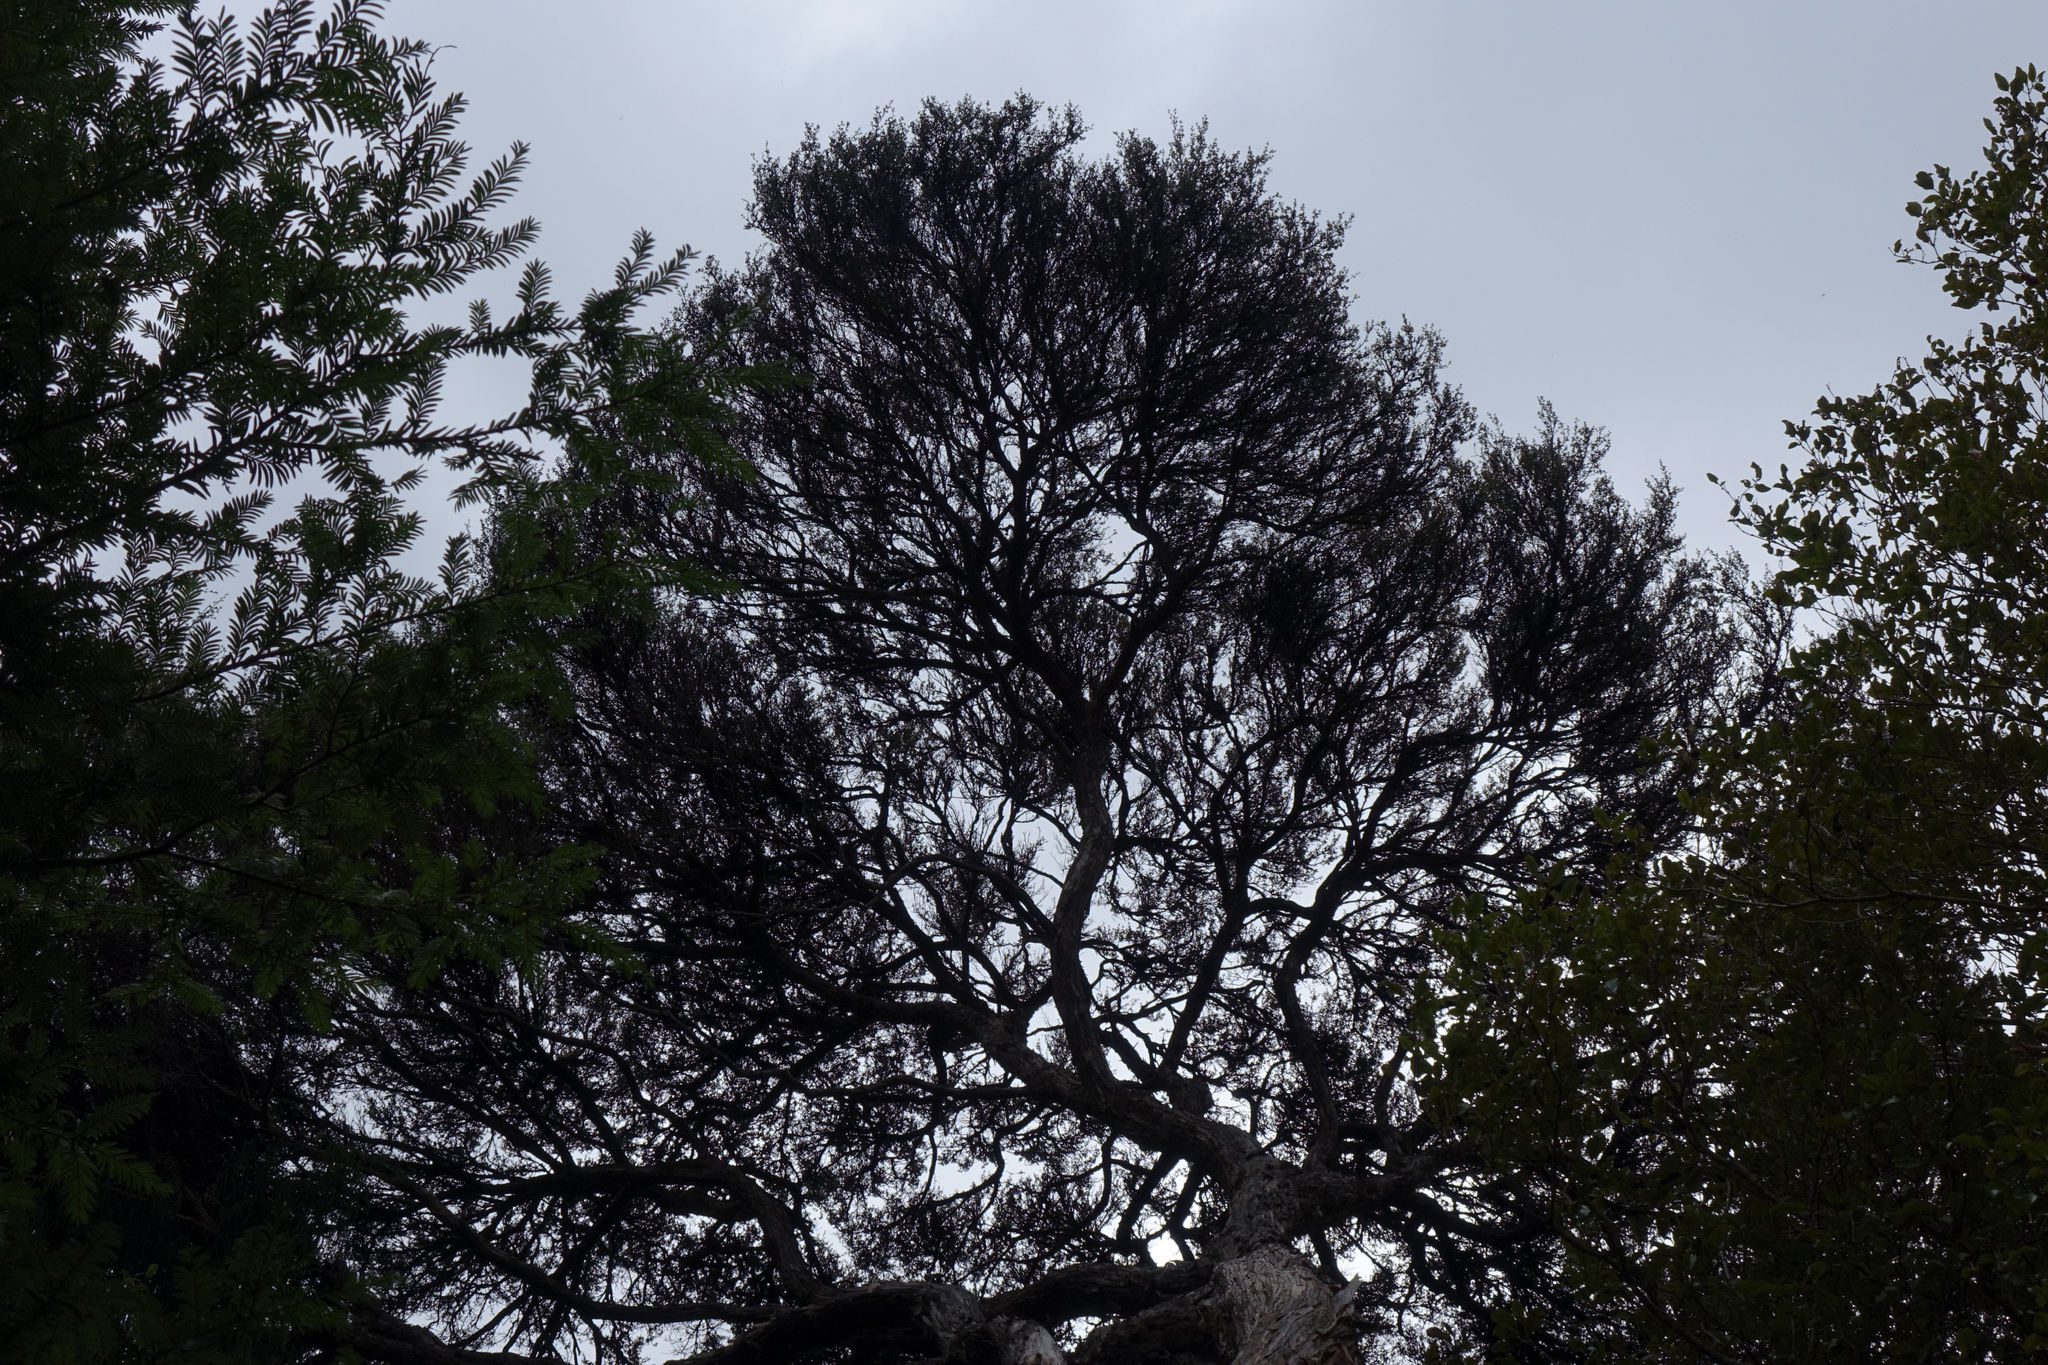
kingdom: Plantae
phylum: Tracheophyta
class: Magnoliopsida
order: Myrtales
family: Myrtaceae
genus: Leptospermum
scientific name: Leptospermum scoparium
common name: Broom tea-tree
